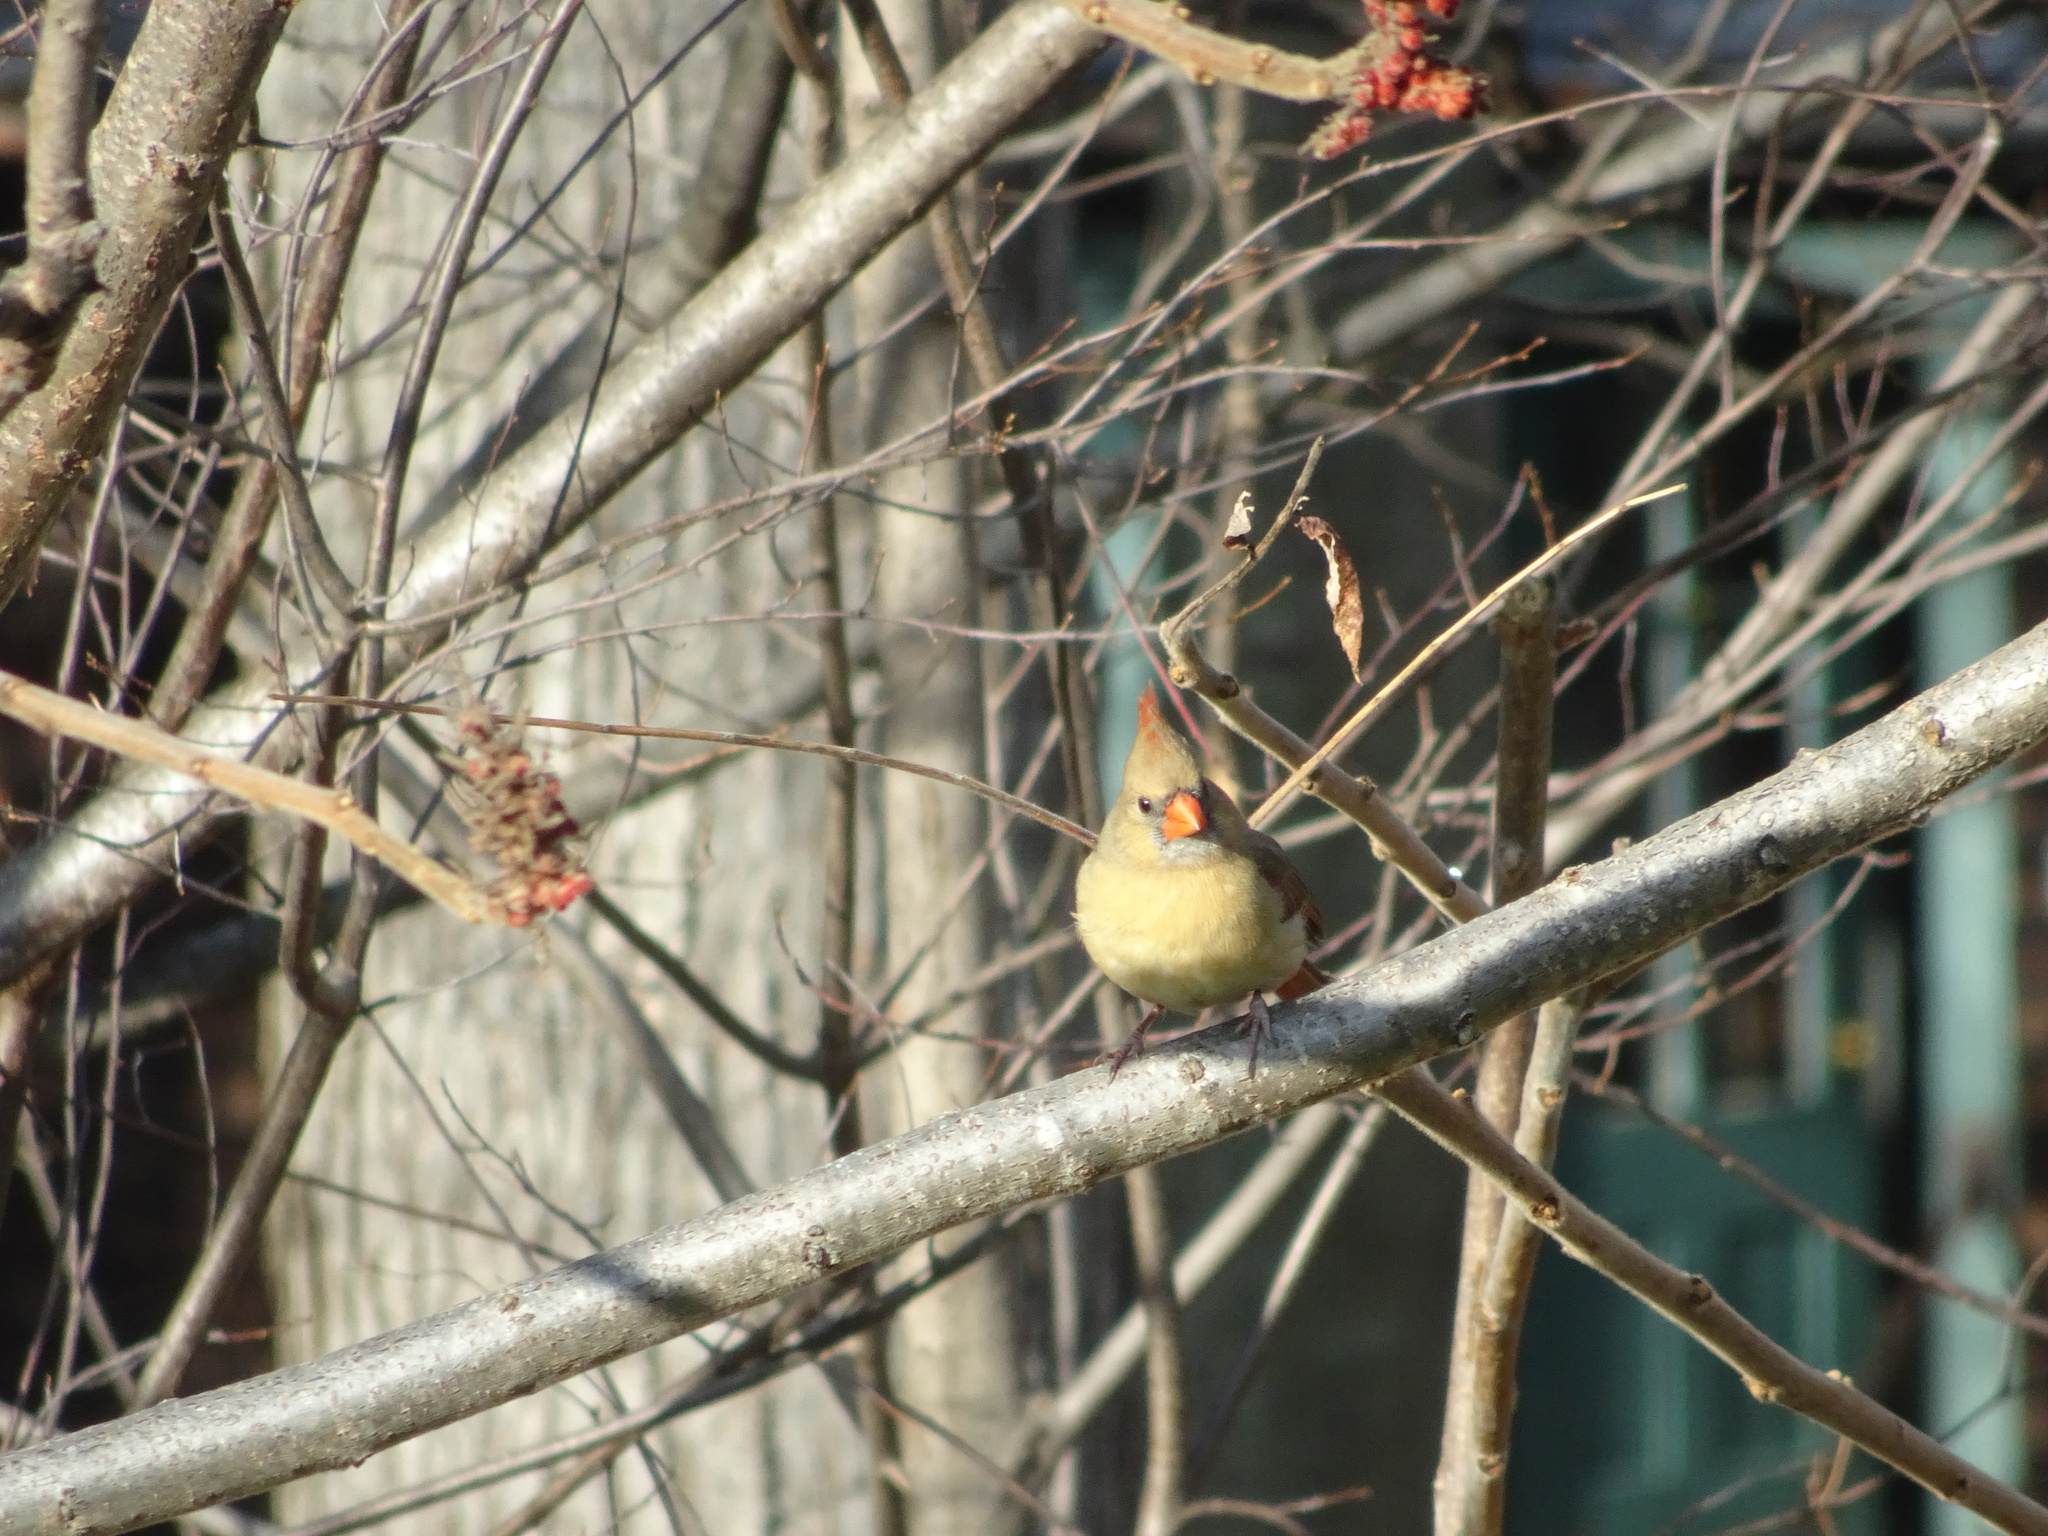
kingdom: Animalia
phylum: Chordata
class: Aves
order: Passeriformes
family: Cardinalidae
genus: Cardinalis
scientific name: Cardinalis cardinalis
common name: Northern cardinal
